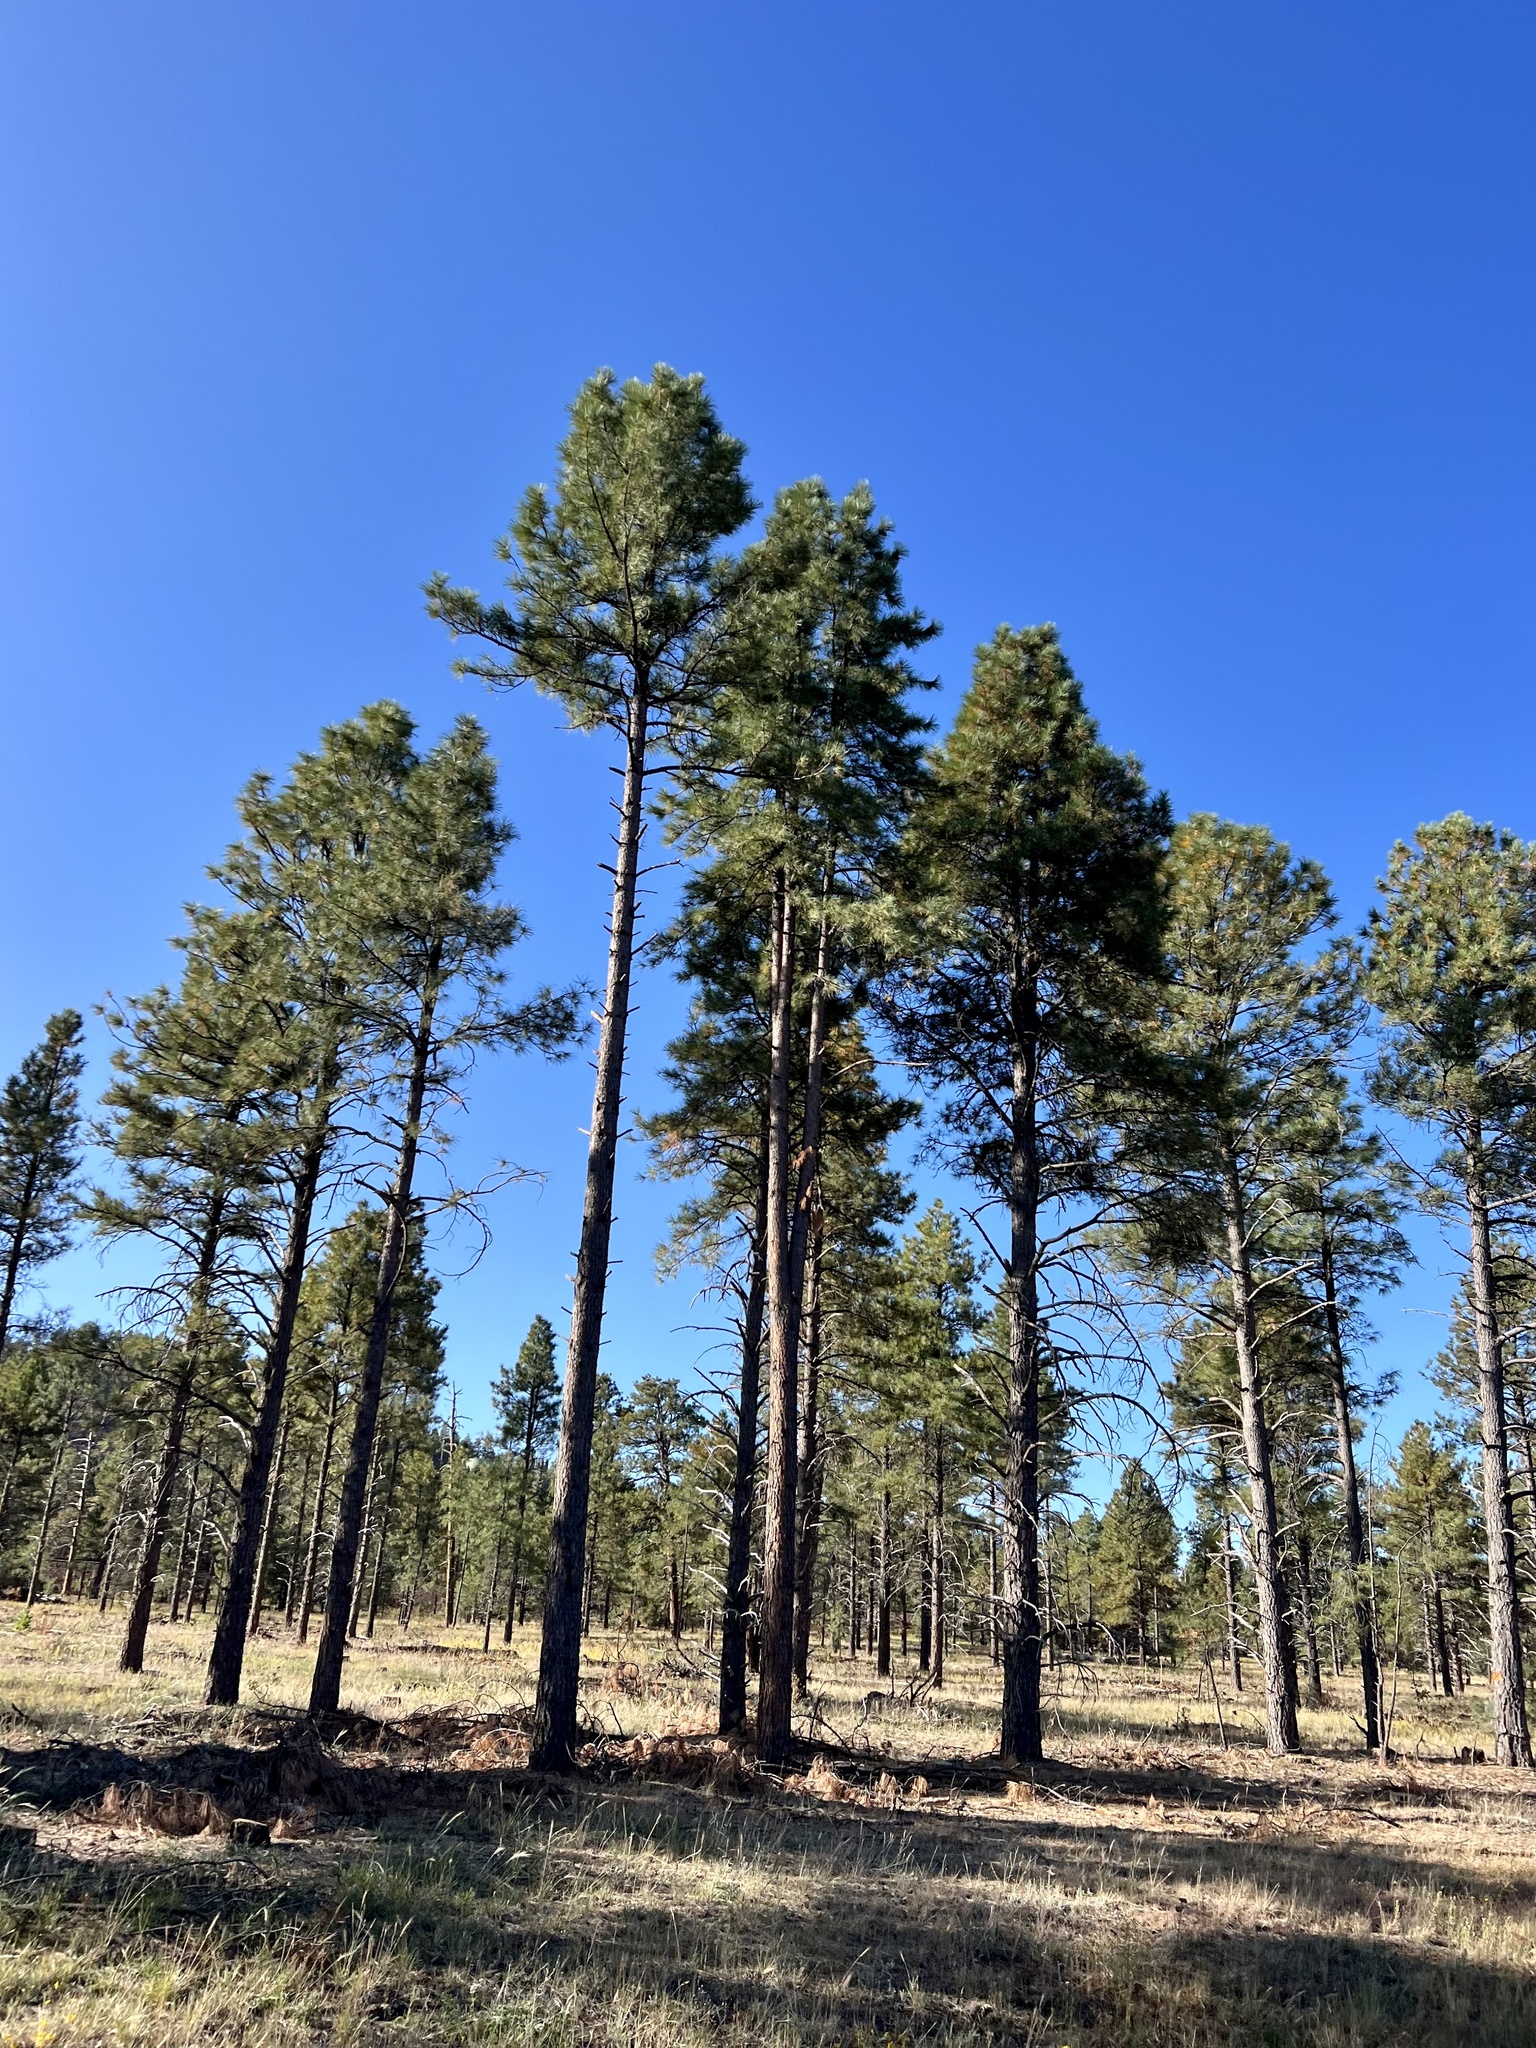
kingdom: Plantae
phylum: Tracheophyta
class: Pinopsida
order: Pinales
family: Pinaceae
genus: Pinus
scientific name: Pinus ponderosa
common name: Western yellow-pine
